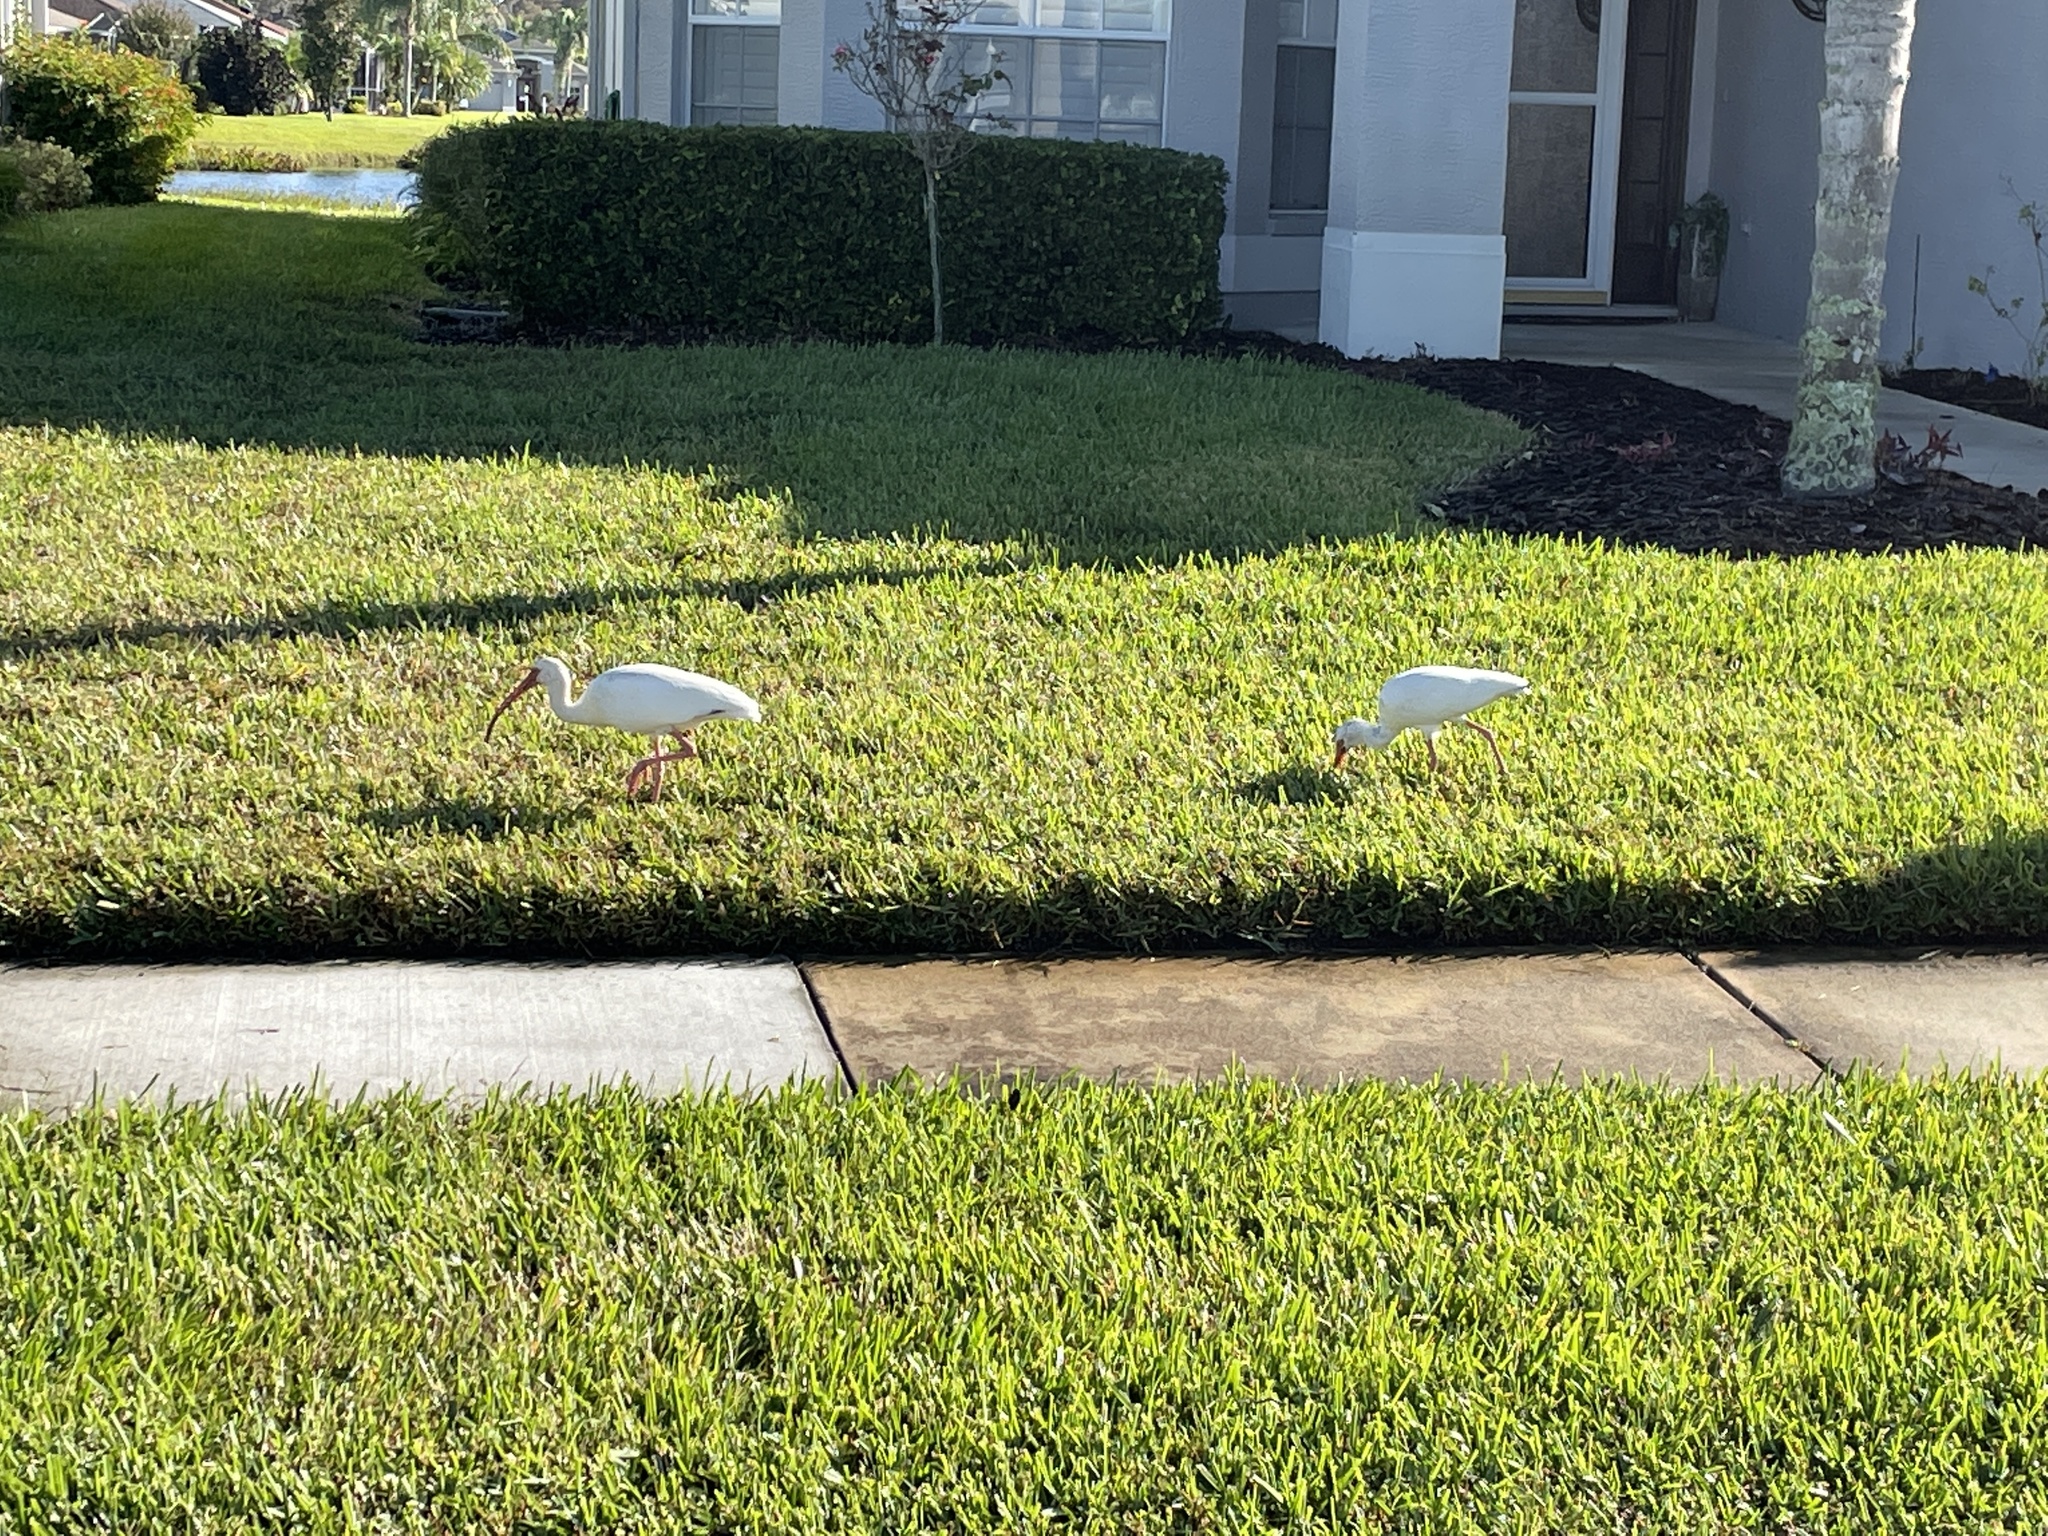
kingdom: Animalia
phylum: Chordata
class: Aves
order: Pelecaniformes
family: Threskiornithidae
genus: Eudocimus
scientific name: Eudocimus albus
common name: White ibis
